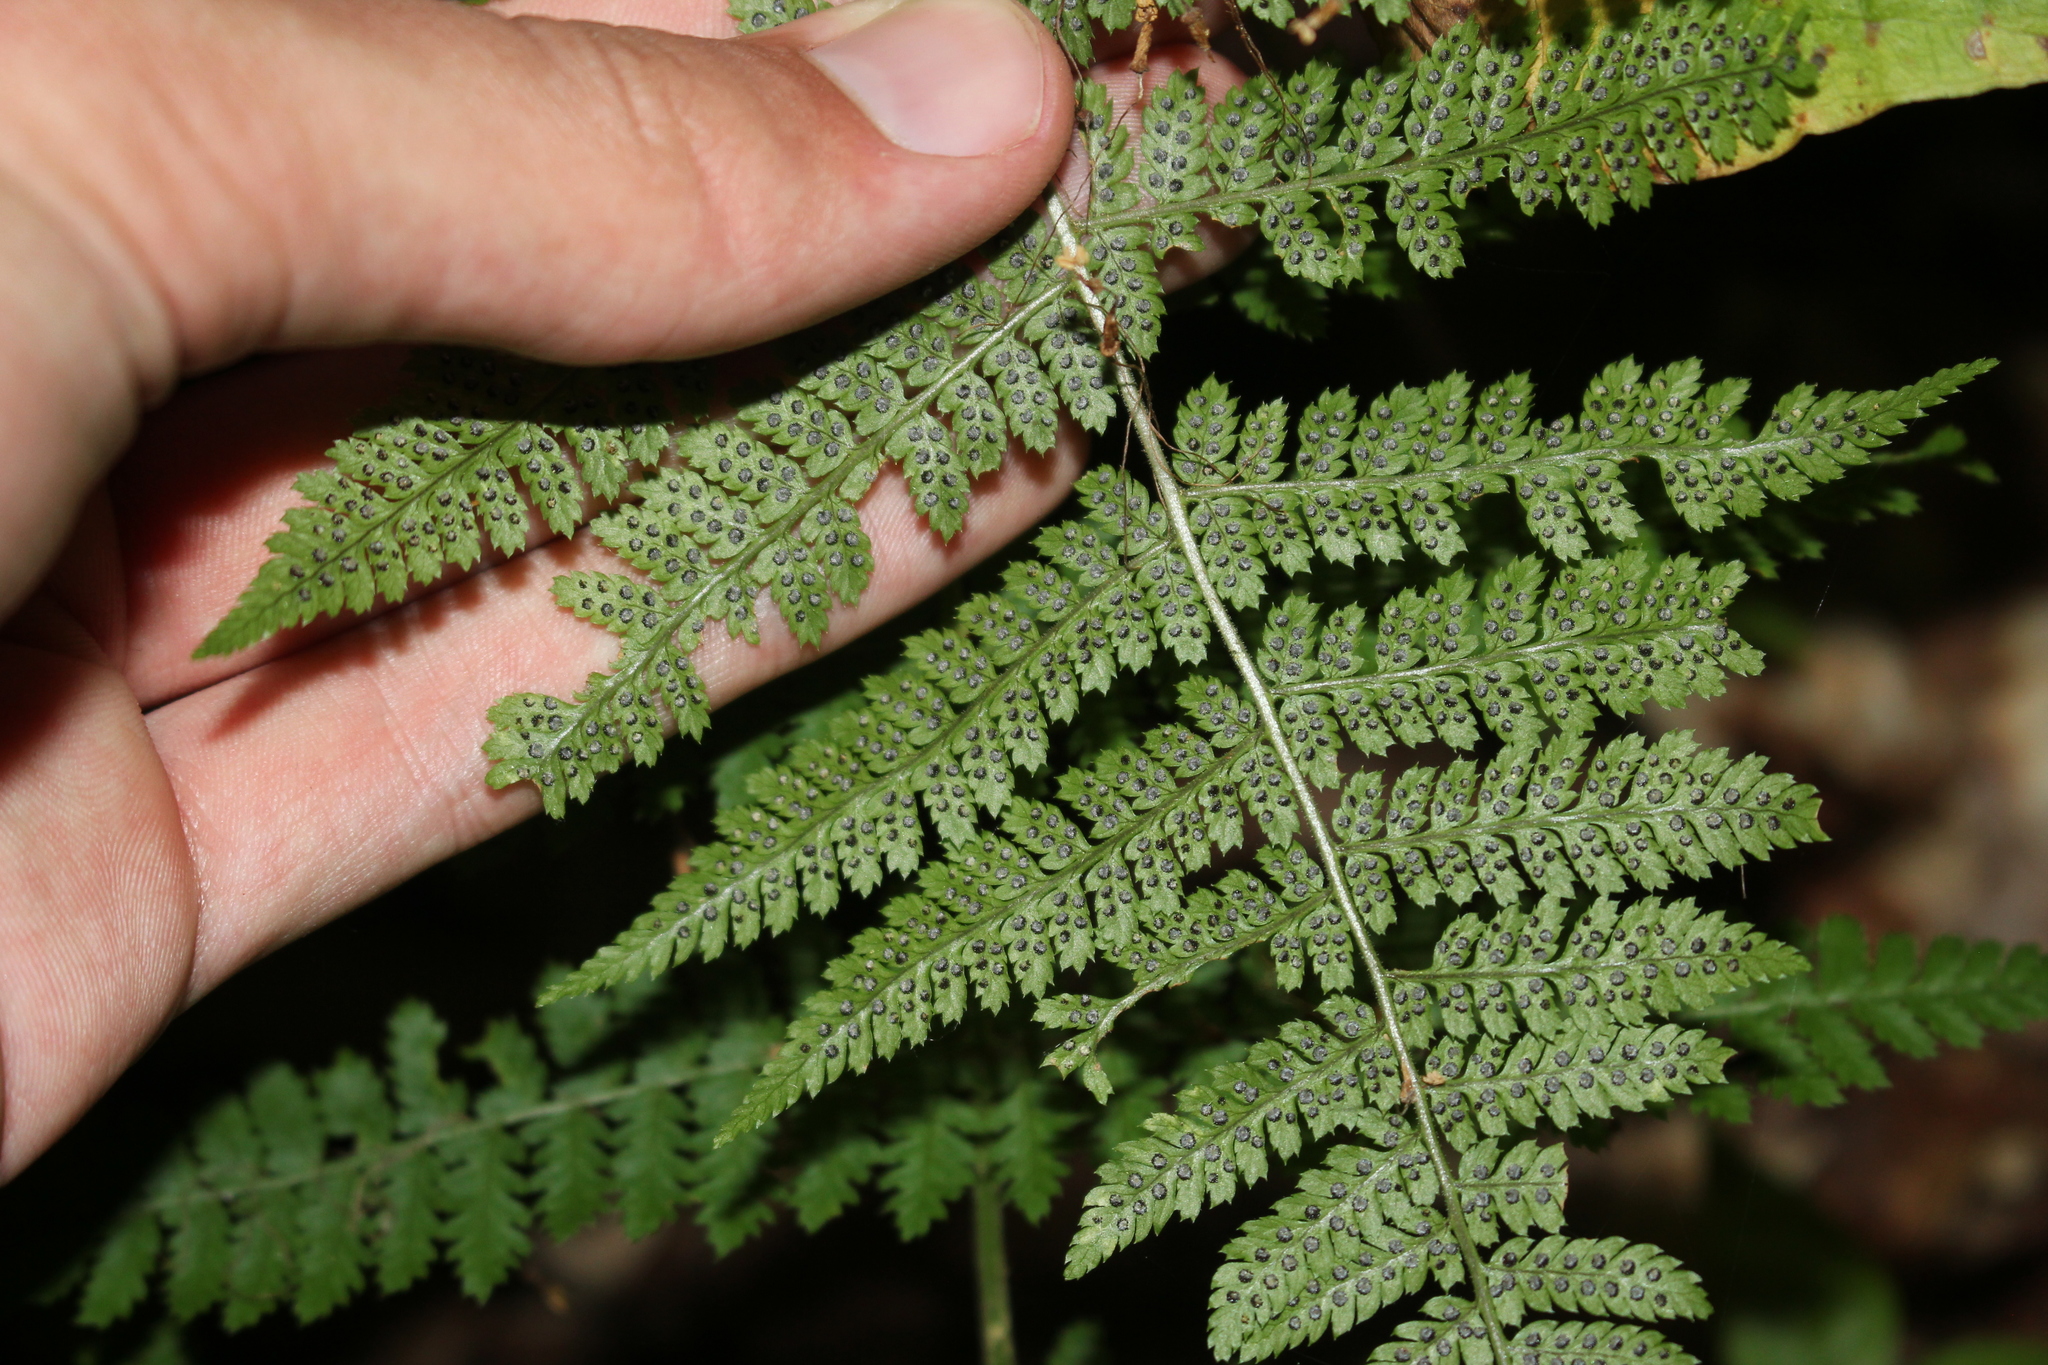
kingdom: Plantae
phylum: Tracheophyta
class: Polypodiopsida
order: Polypodiales
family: Dryopteridaceae
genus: Dryopteris
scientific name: Dryopteris intermedia
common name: Evergreen wood fern
